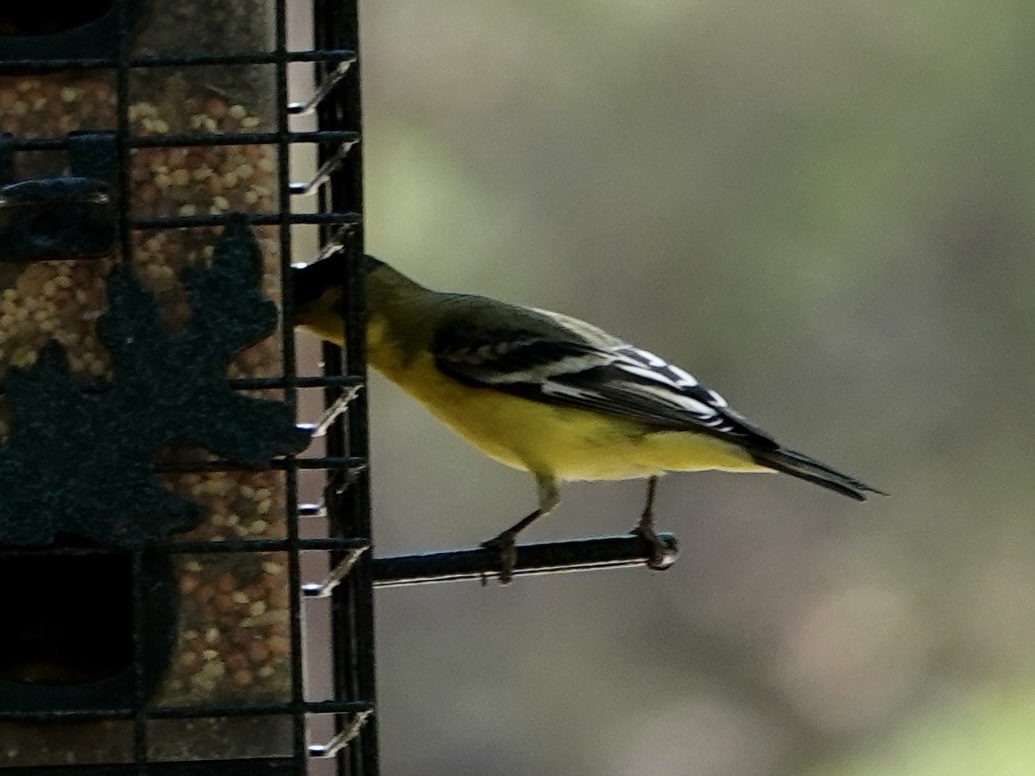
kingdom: Animalia
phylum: Chordata
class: Aves
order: Passeriformes
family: Fringillidae
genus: Spinus
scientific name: Spinus psaltria
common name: Lesser goldfinch
